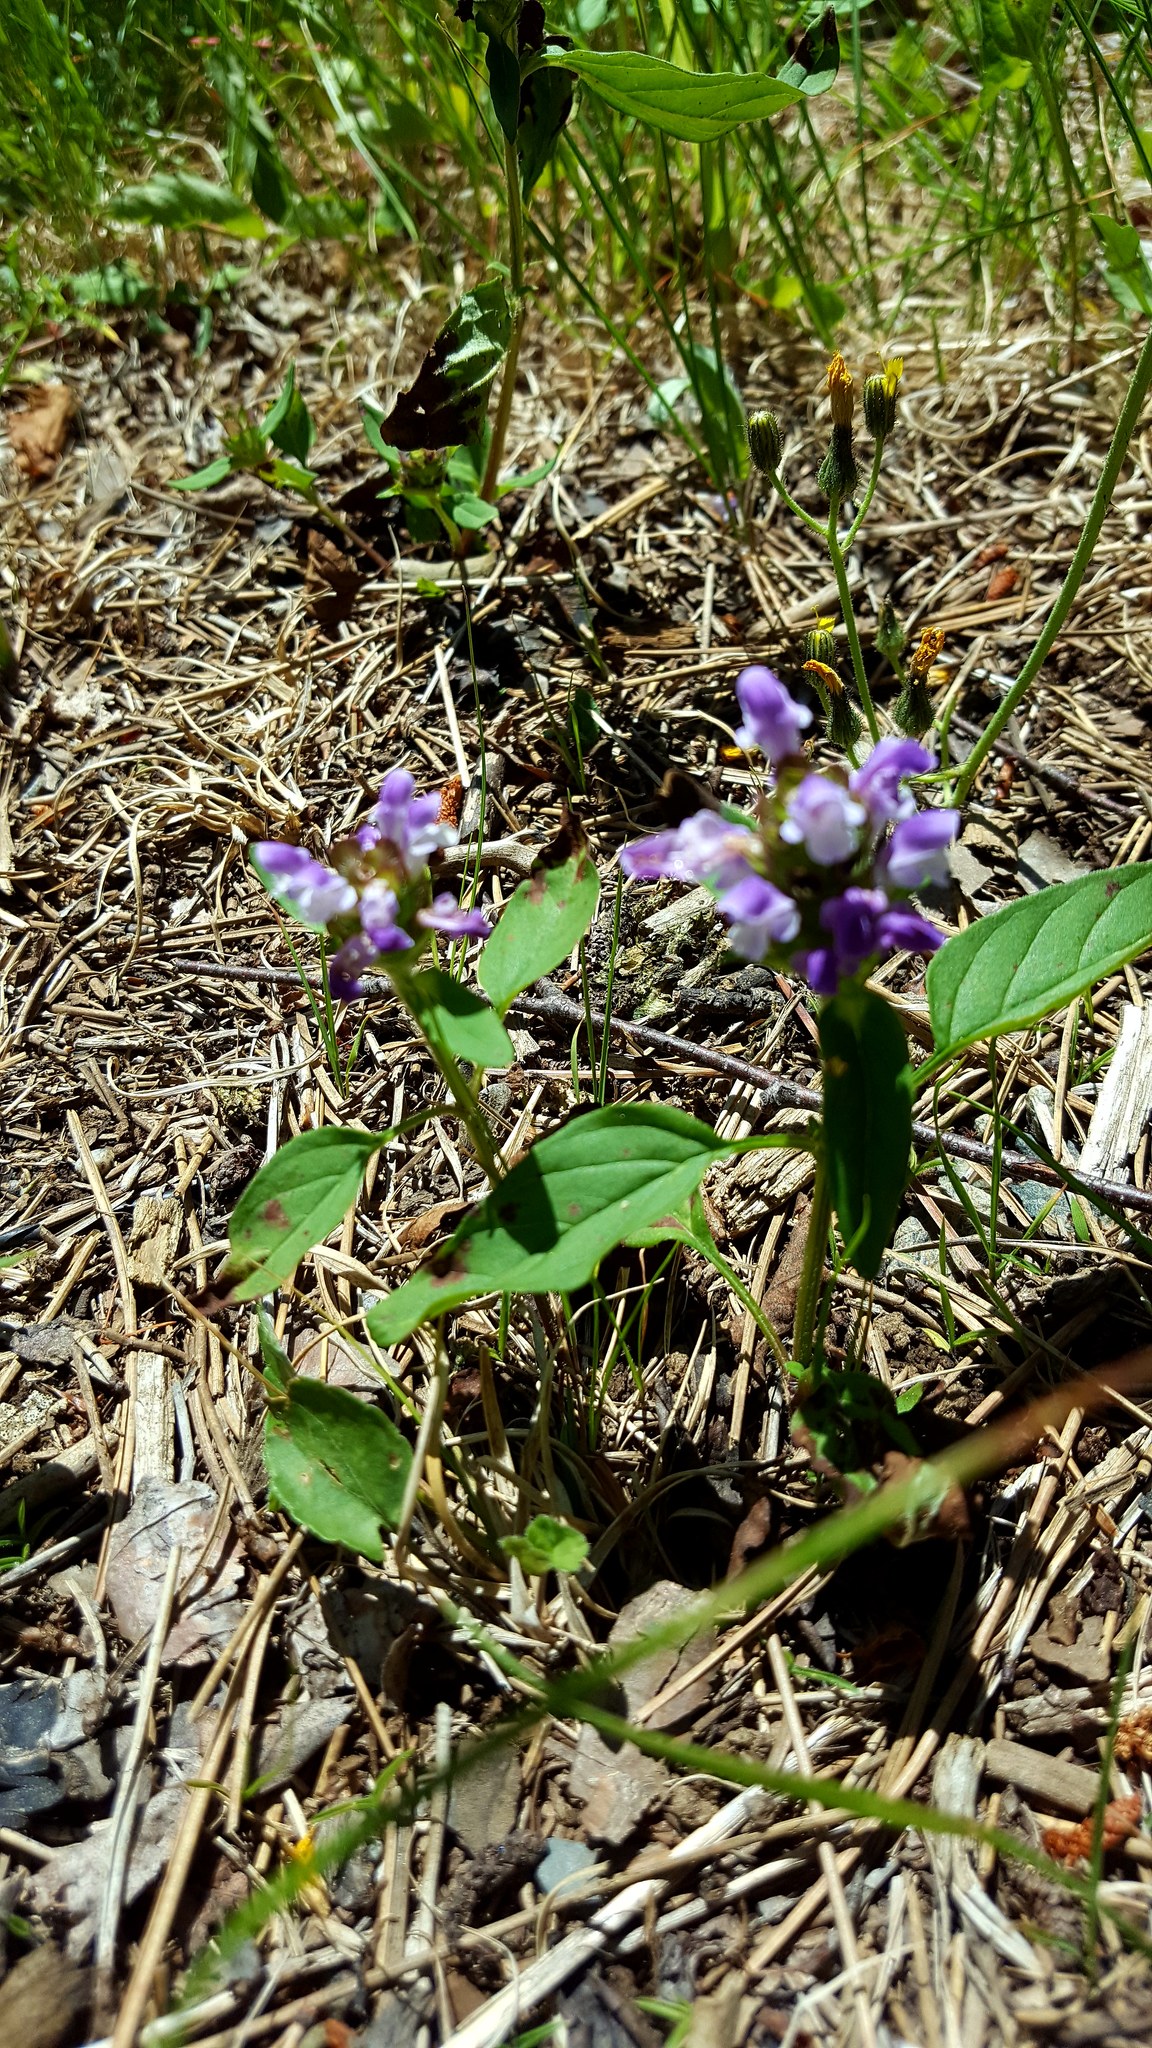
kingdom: Plantae
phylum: Tracheophyta
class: Magnoliopsida
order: Lamiales
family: Lamiaceae
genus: Prunella
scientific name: Prunella vulgaris
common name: Heal-all
